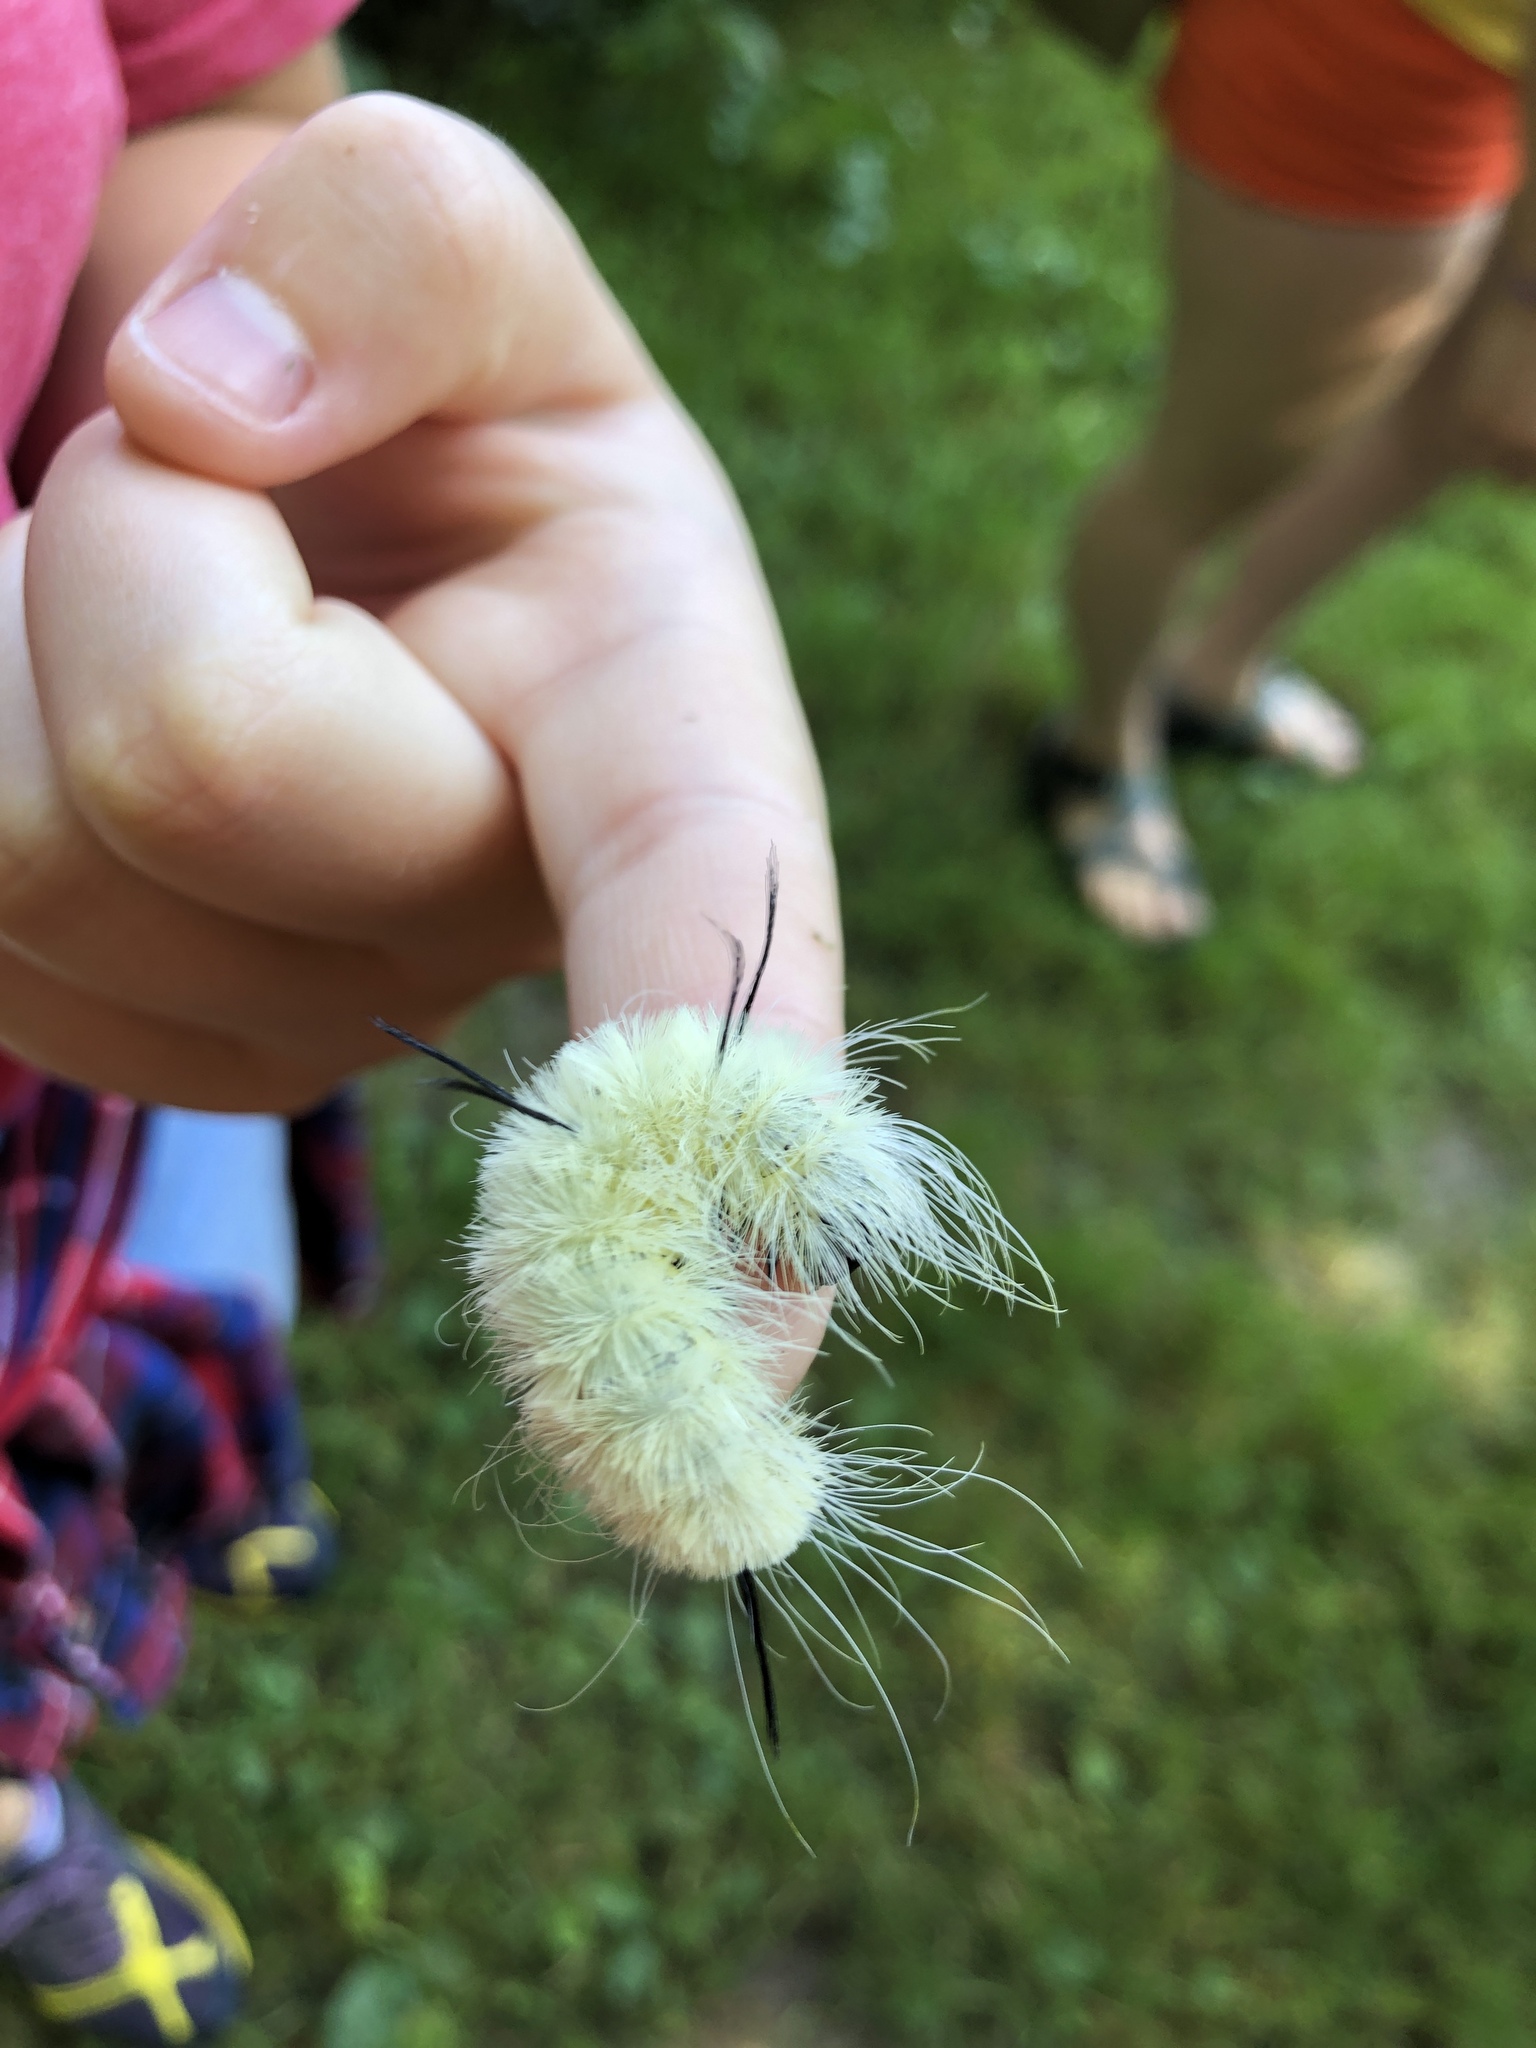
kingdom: Animalia
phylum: Arthropoda
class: Insecta
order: Lepidoptera
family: Noctuidae
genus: Acronicta
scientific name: Acronicta americana
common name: American dagger
